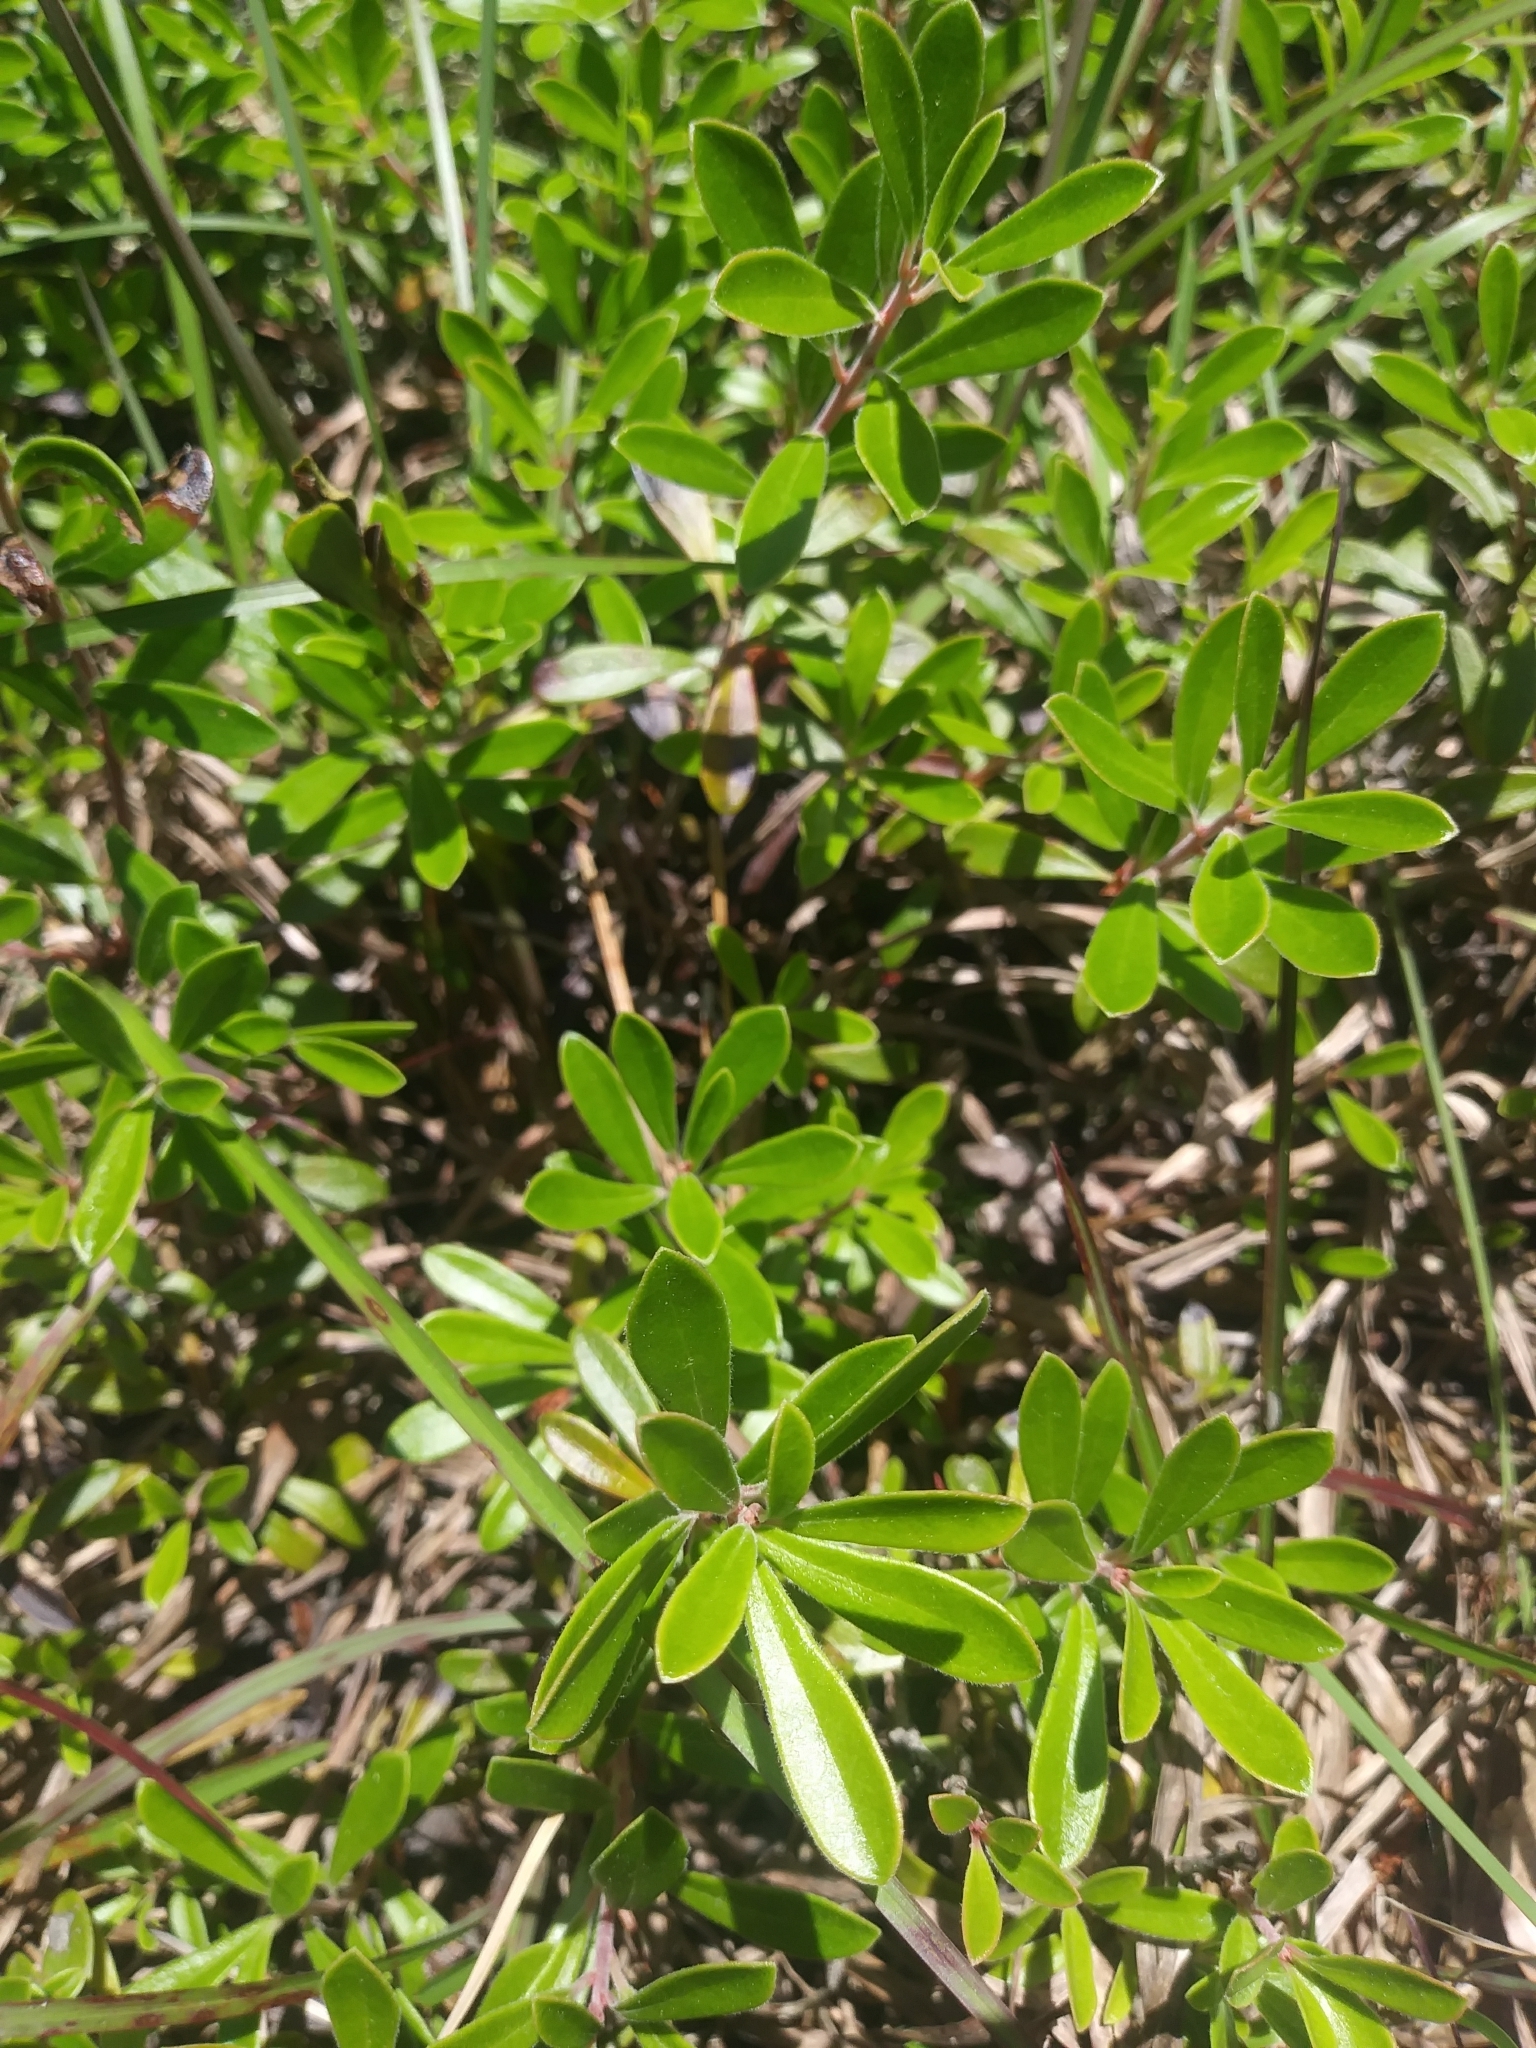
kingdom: Plantae
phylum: Tracheophyta
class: Magnoliopsida
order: Ericales
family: Ericaceae
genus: Arctostaphylos
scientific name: Arctostaphylos uva-ursi
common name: Bearberry
